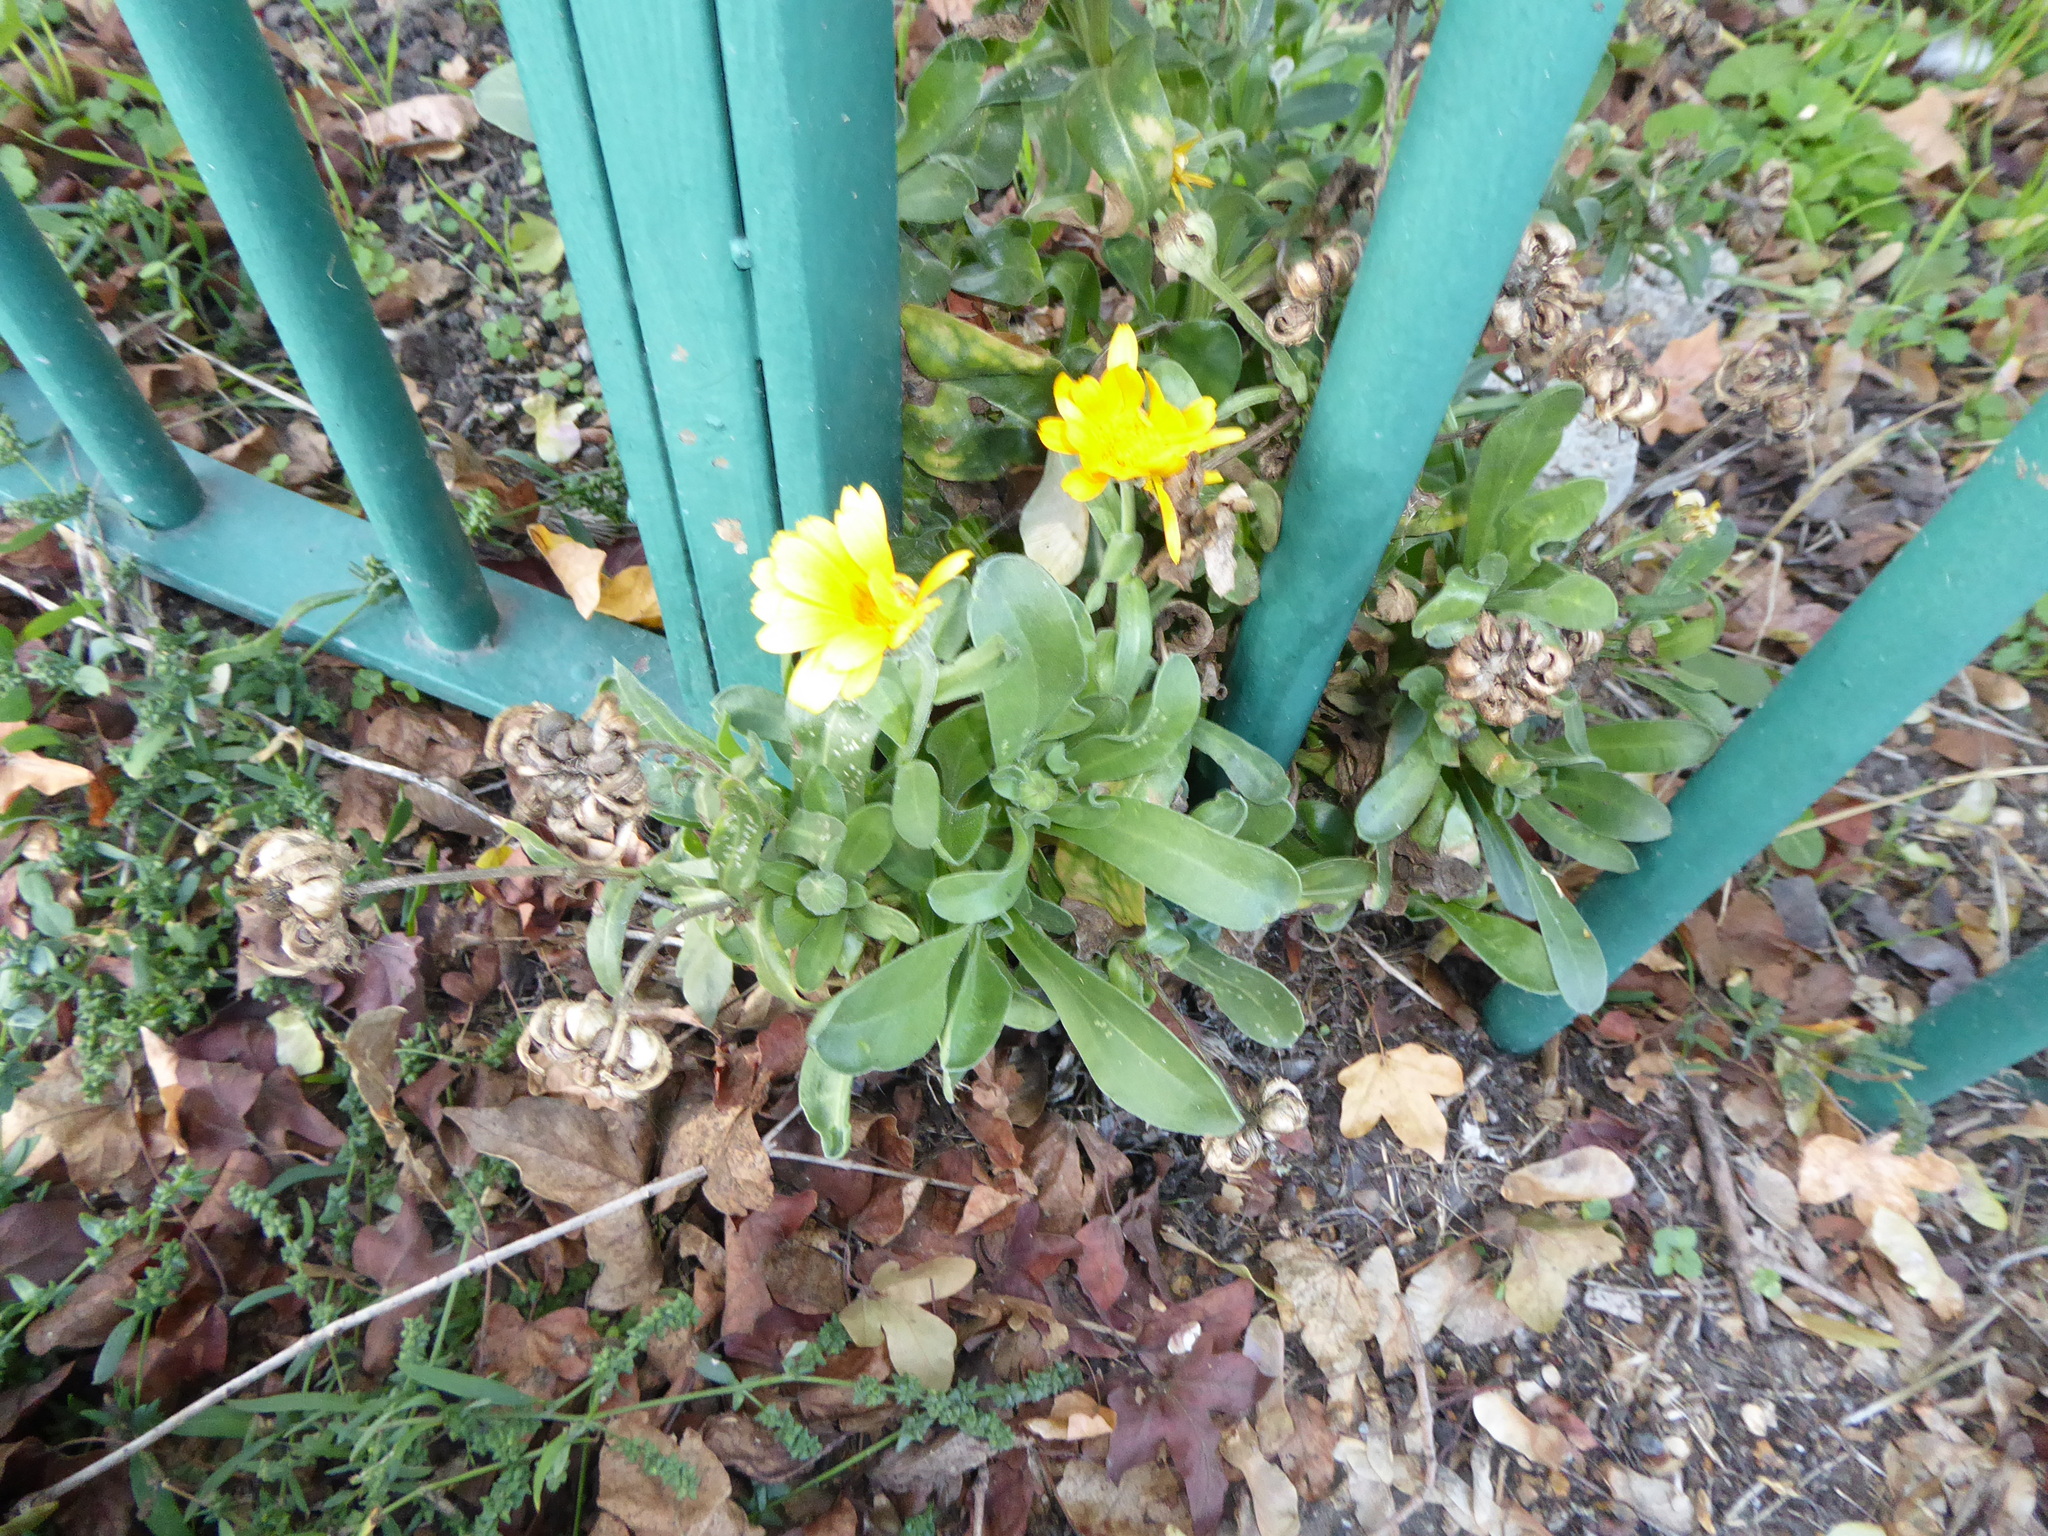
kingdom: Plantae
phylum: Tracheophyta
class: Magnoliopsida
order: Asterales
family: Asteraceae
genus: Calendula
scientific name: Calendula officinalis
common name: Pot marigold
